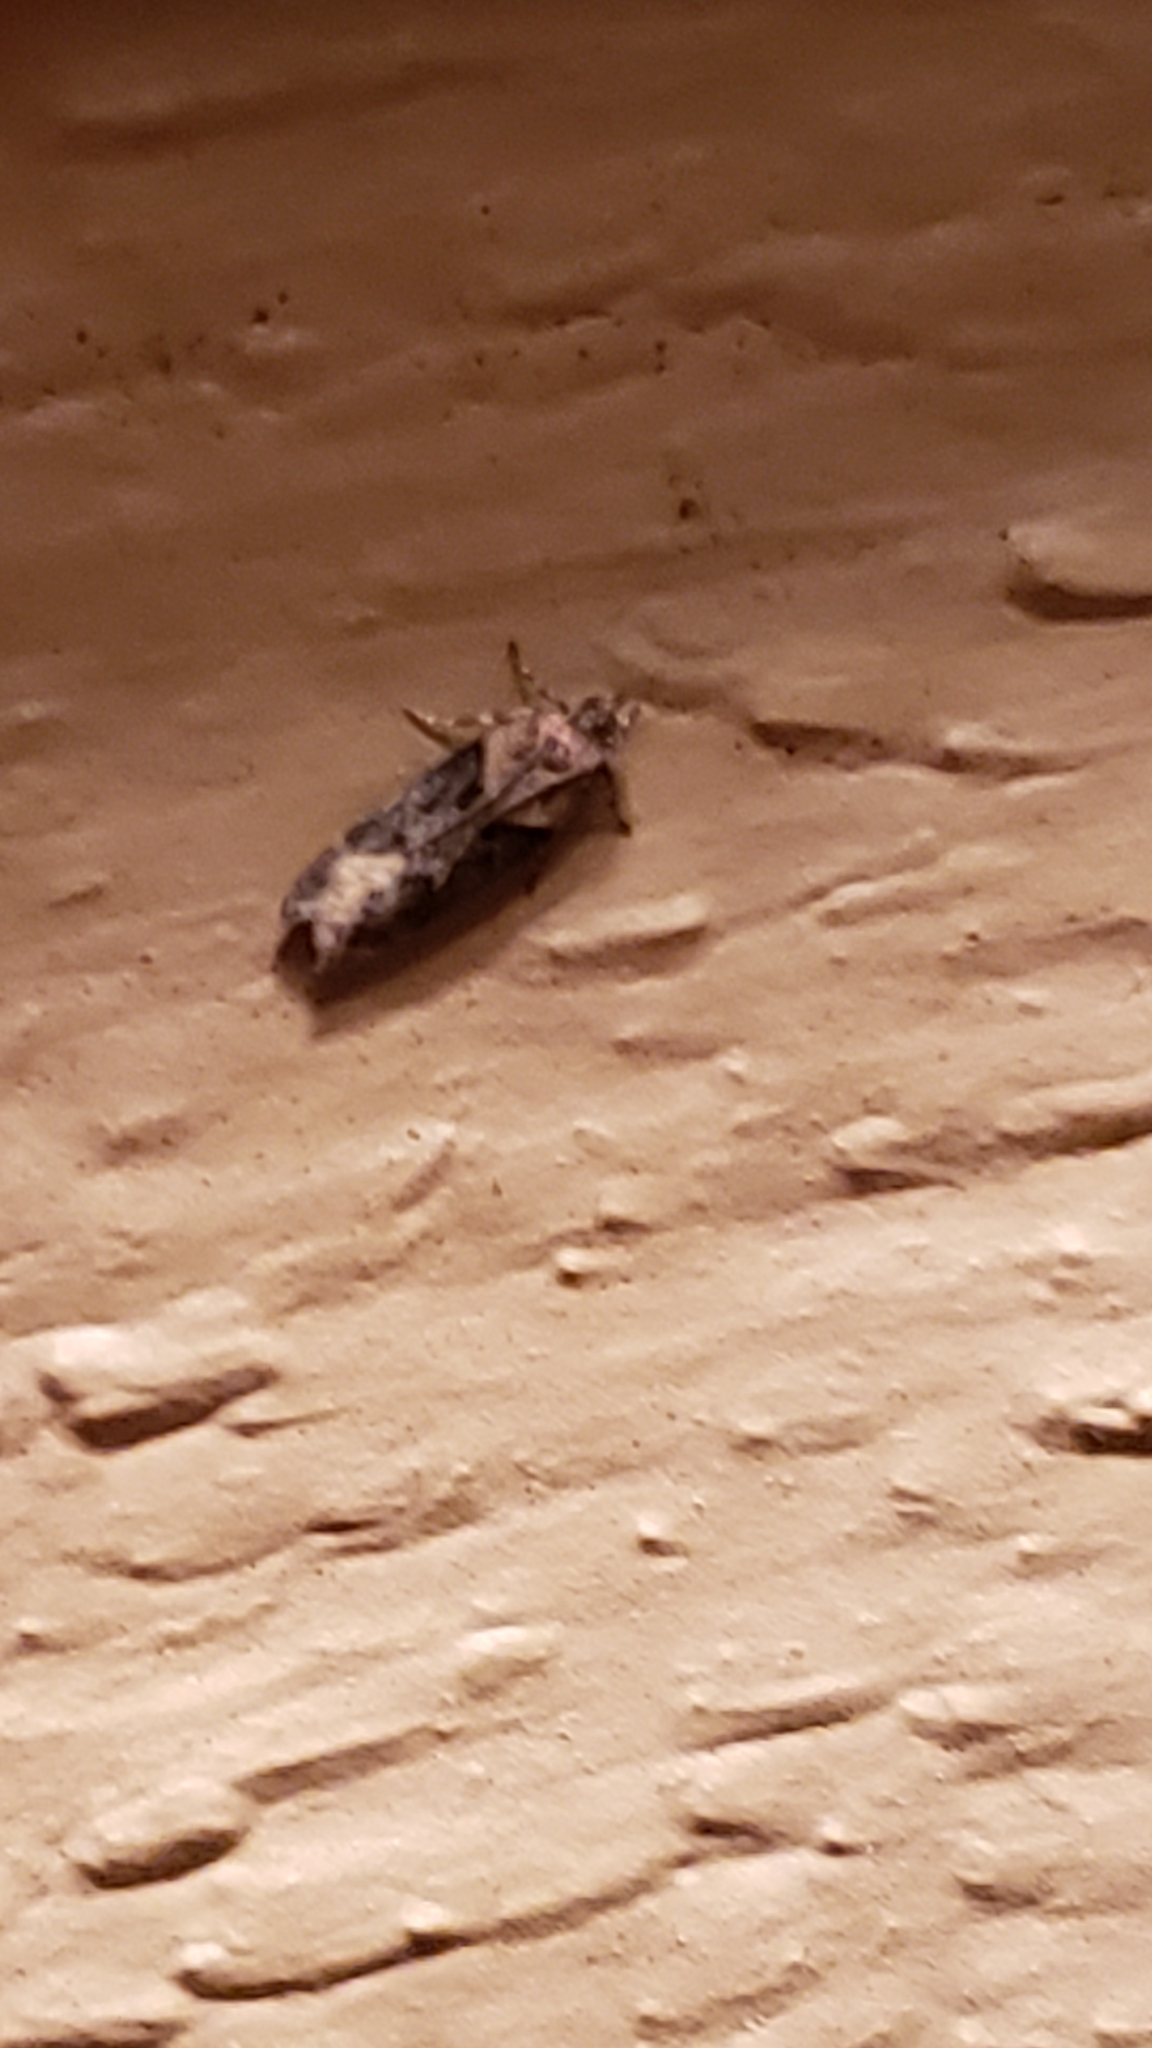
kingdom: Animalia
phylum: Arthropoda
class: Insecta
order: Lepidoptera
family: Gelechiidae
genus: Chionodes
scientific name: Chionodes mediofuscella
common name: Black-smudged chionodes moth
